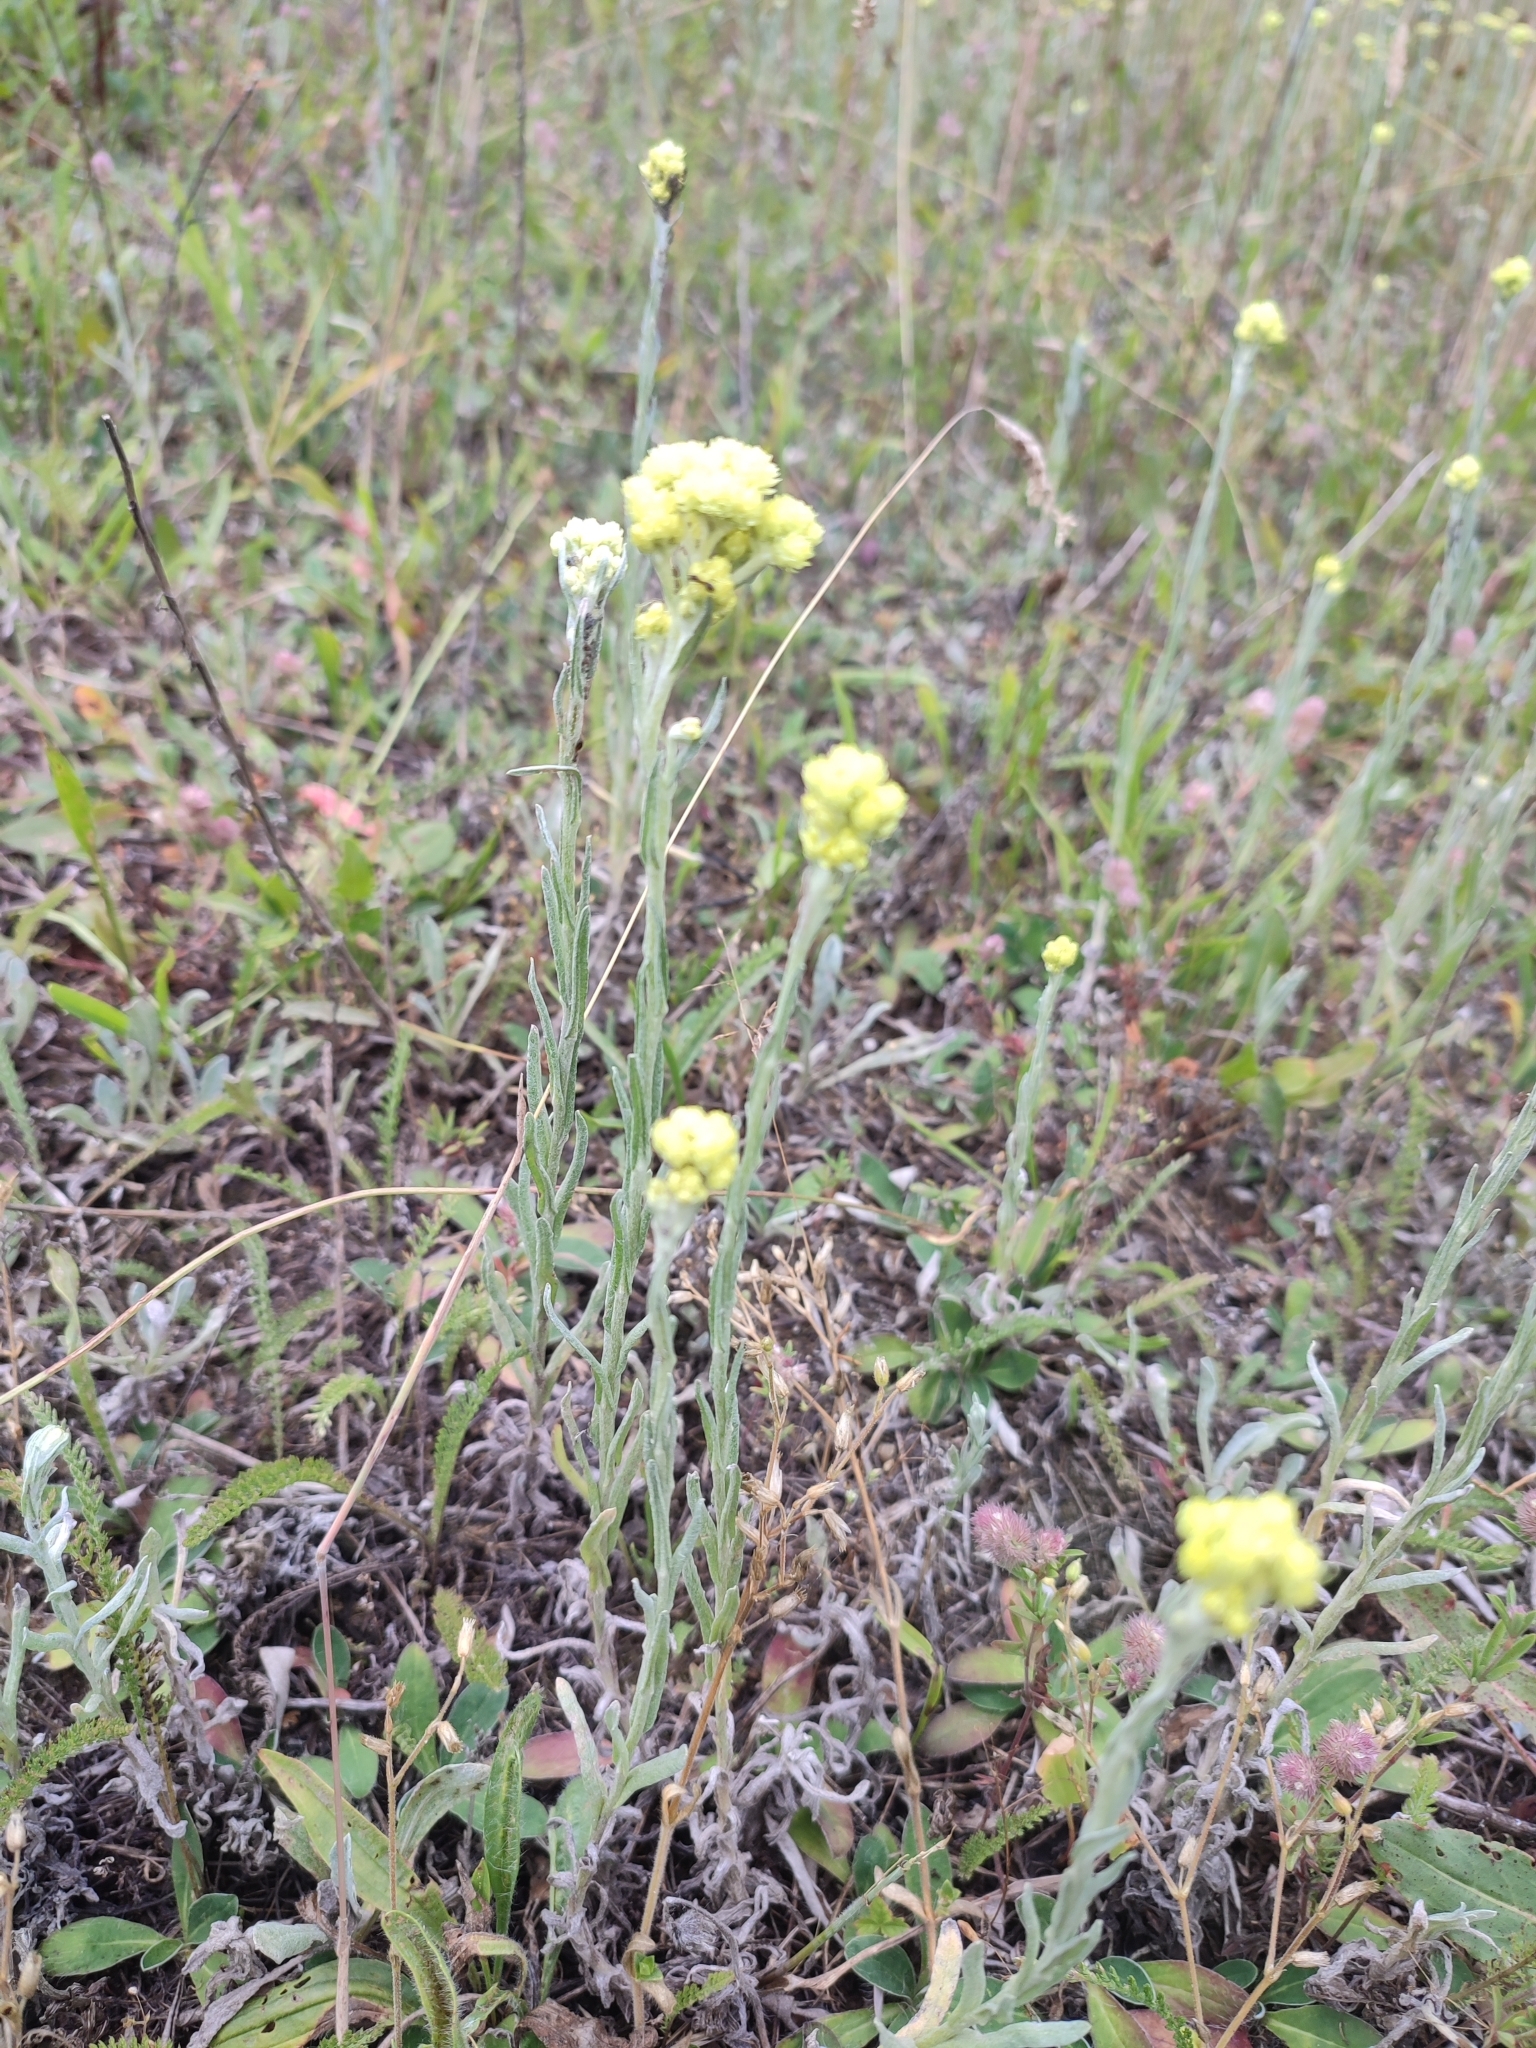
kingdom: Plantae
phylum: Tracheophyta
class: Magnoliopsida
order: Asterales
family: Asteraceae
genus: Helichrysum
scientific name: Helichrysum arenarium
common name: Strawflower
